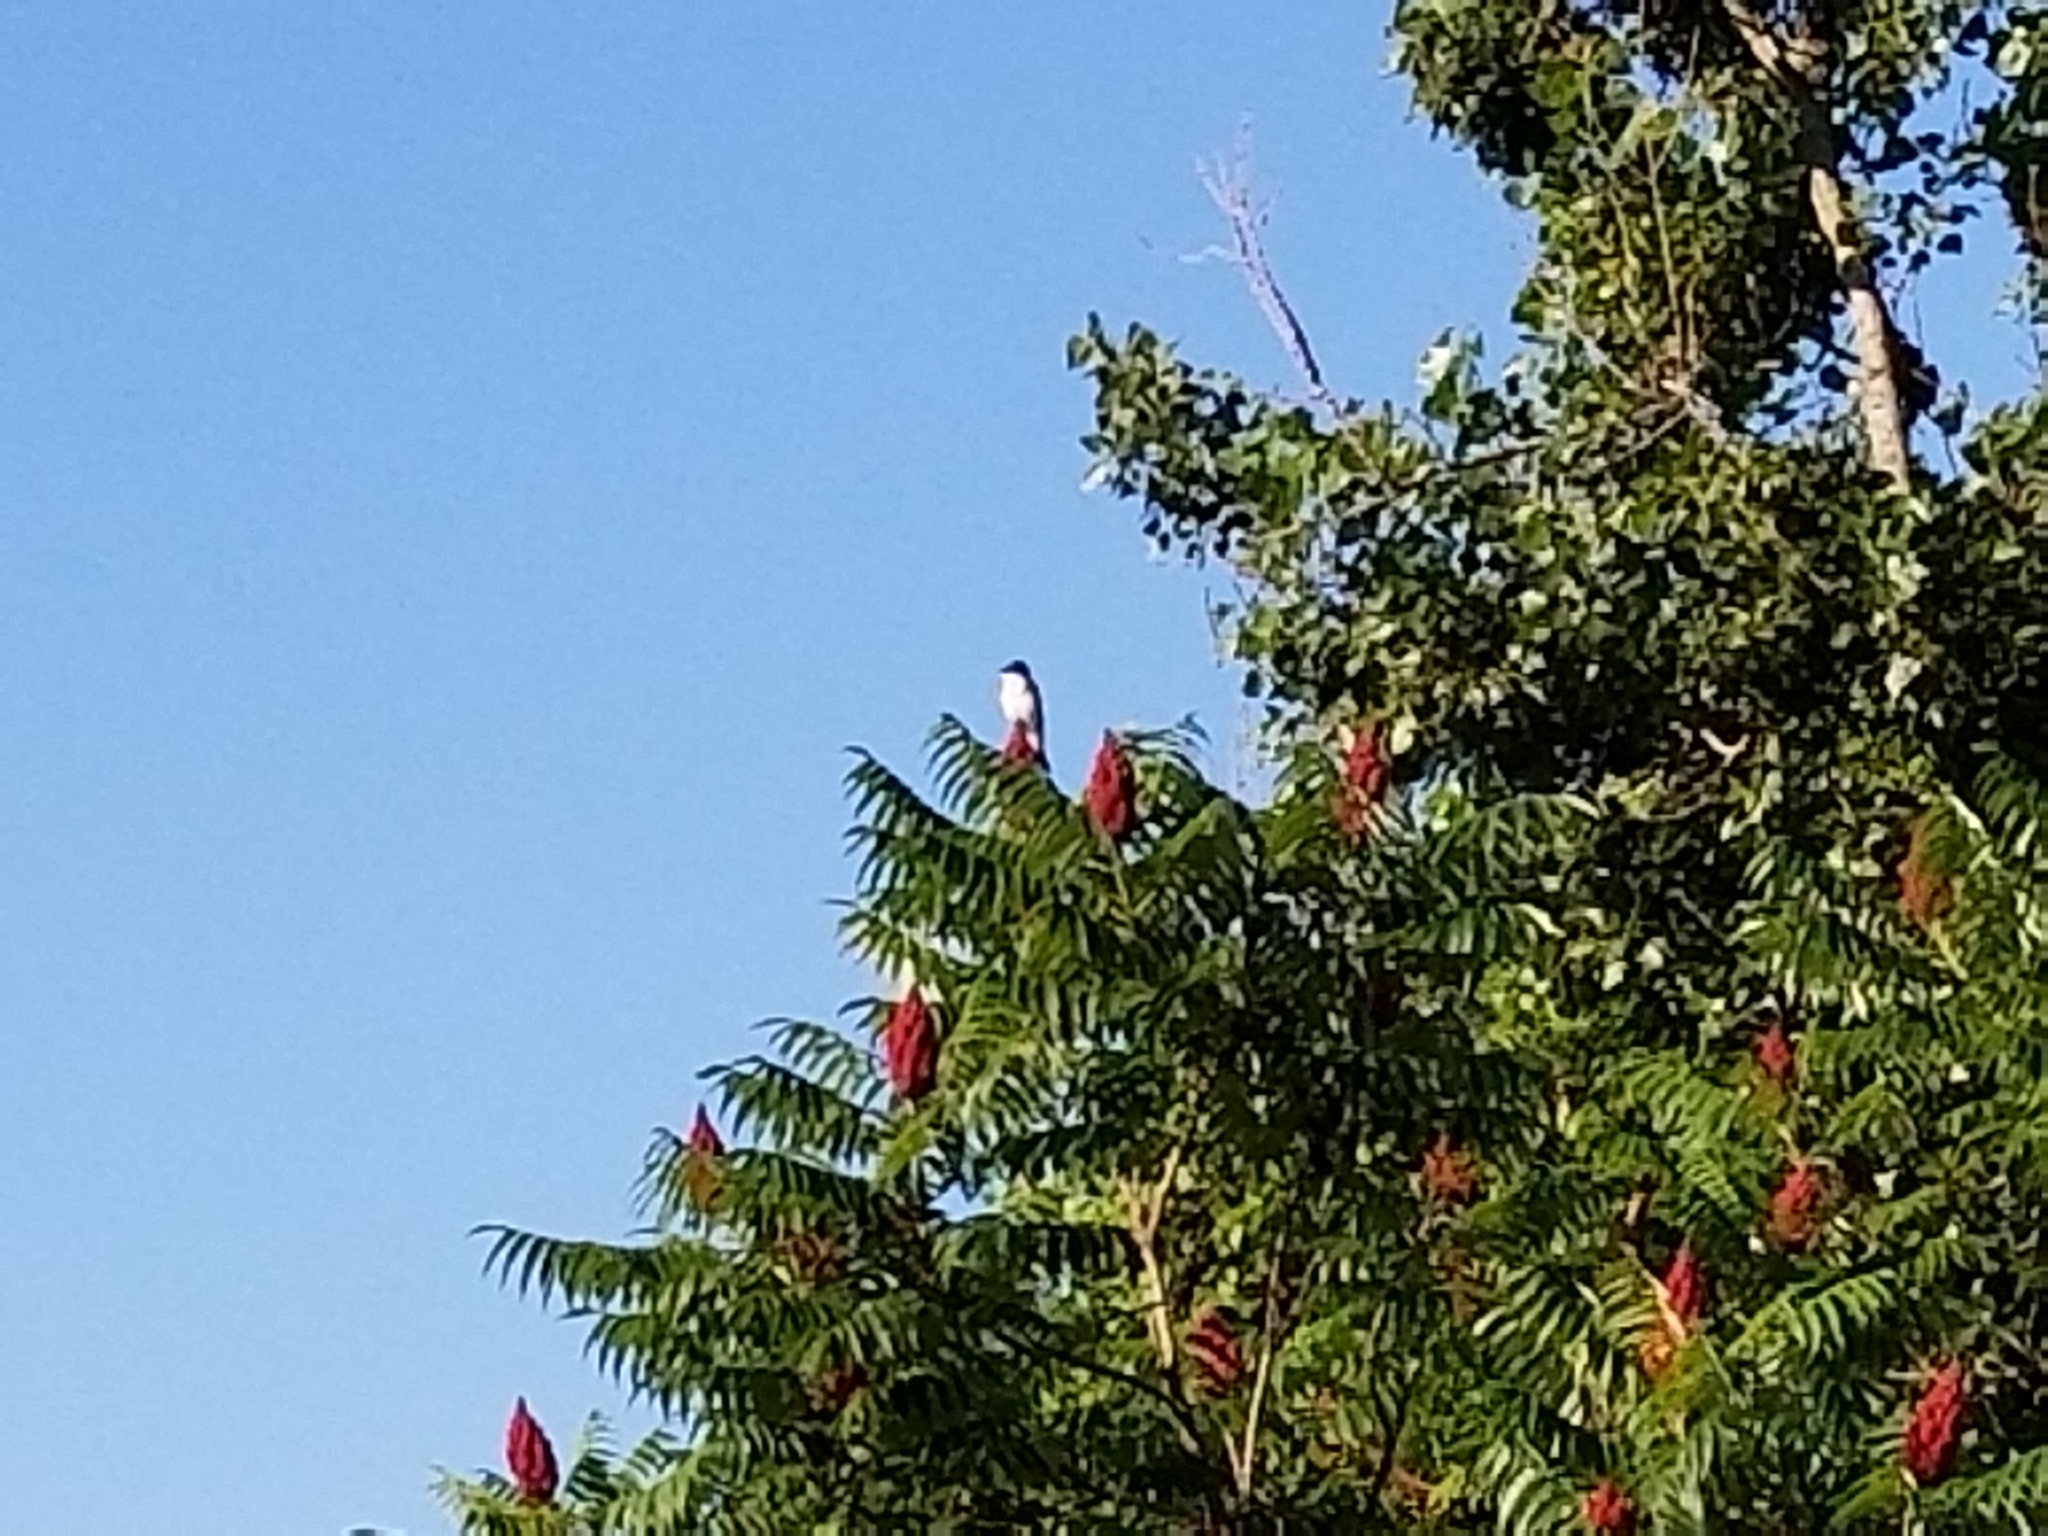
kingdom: Animalia
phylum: Chordata
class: Aves
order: Passeriformes
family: Tyrannidae
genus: Tyrannus
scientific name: Tyrannus tyrannus
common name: Eastern kingbird
